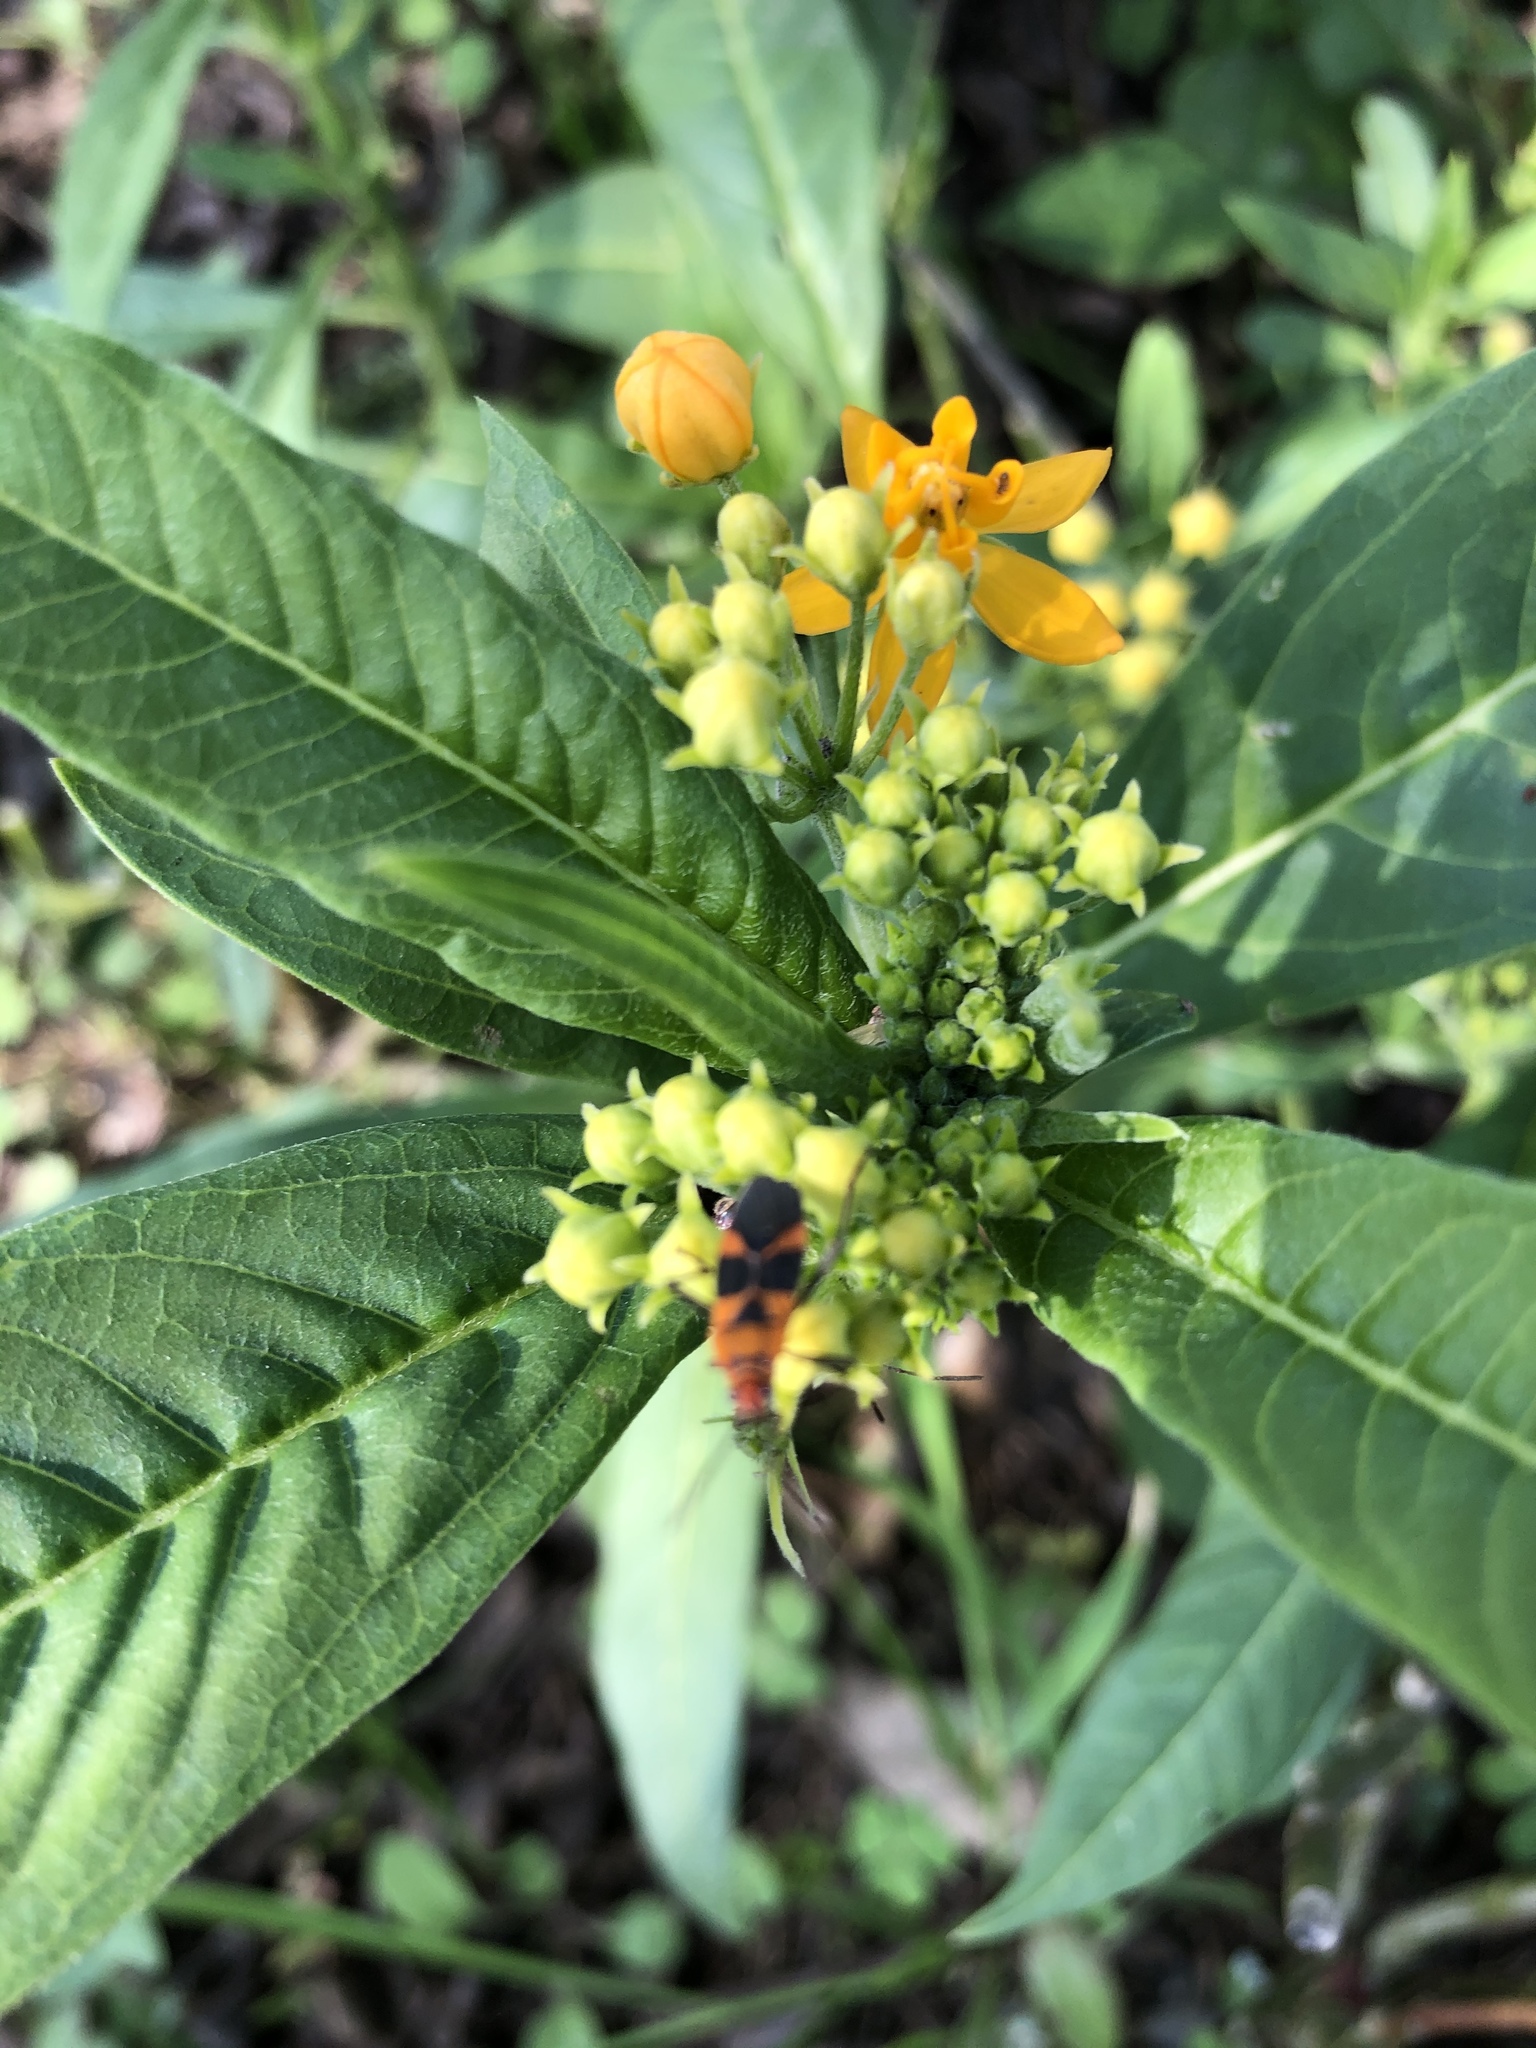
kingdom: Animalia
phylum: Arthropoda
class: Insecta
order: Hemiptera
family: Lygaeidae
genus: Oncopeltus
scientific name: Oncopeltus zonatus
